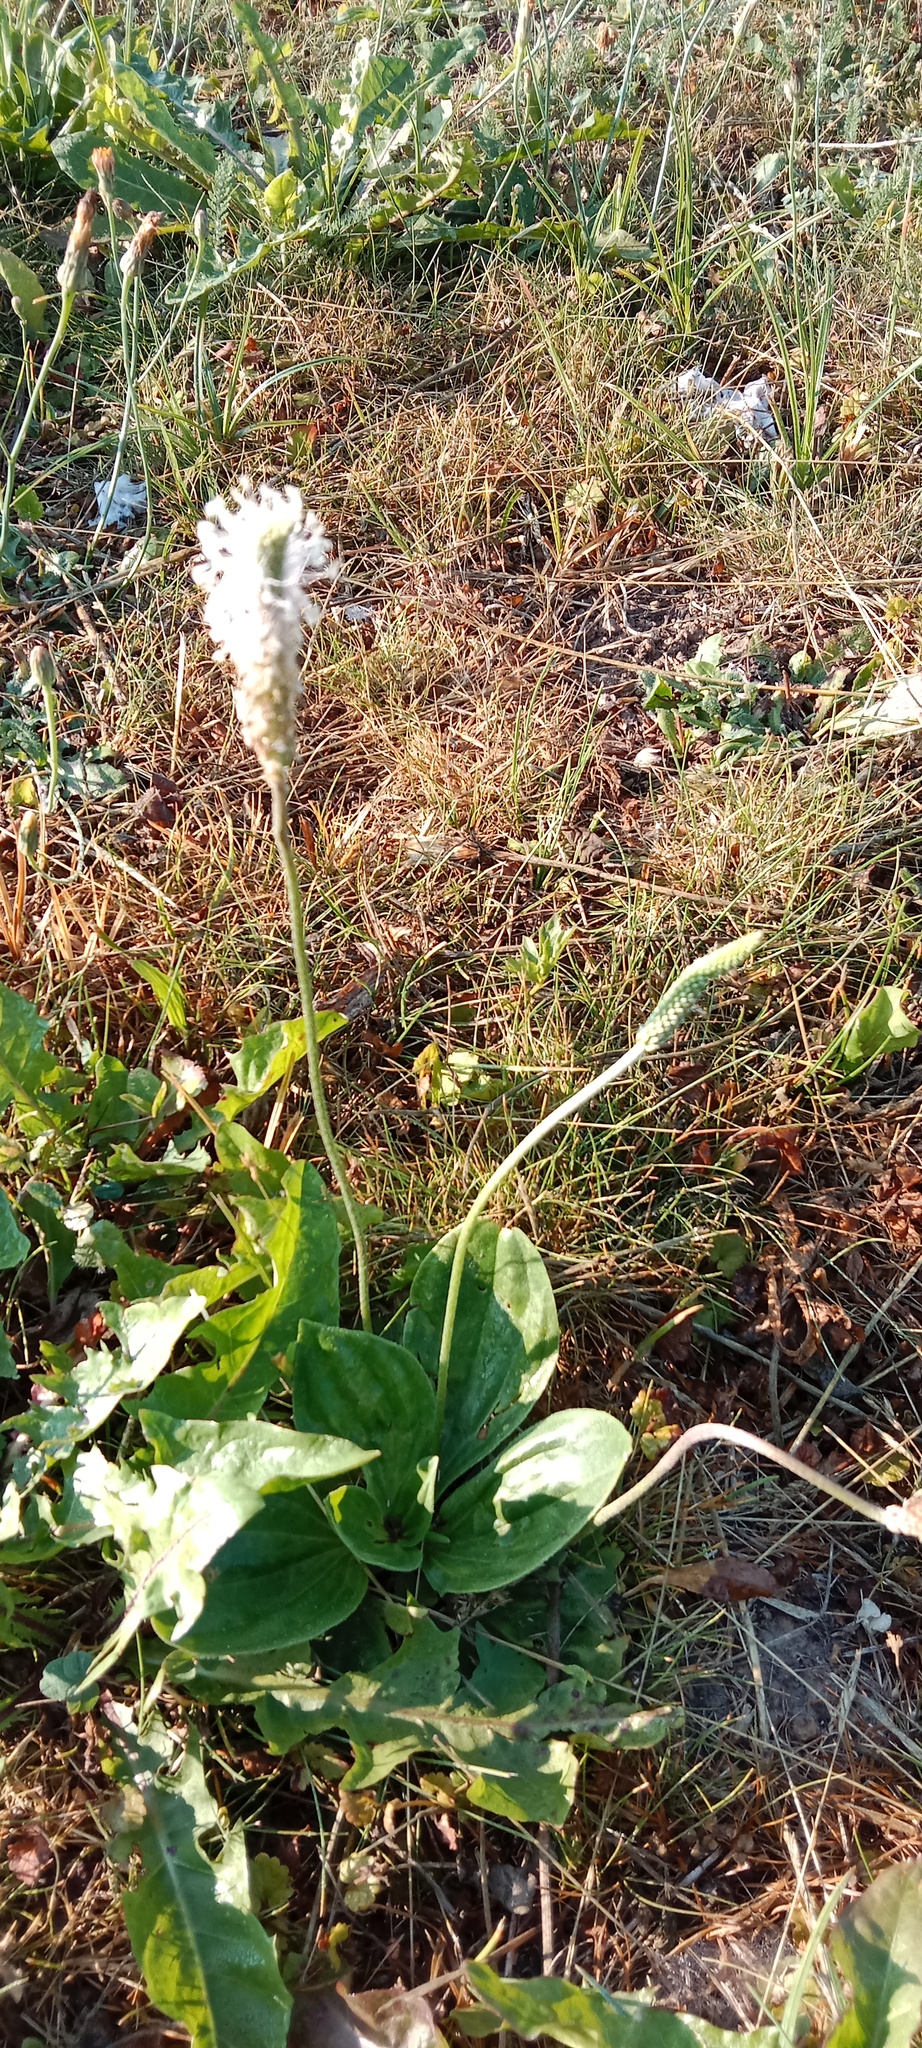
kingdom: Plantae
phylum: Tracheophyta
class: Magnoliopsida
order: Lamiales
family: Plantaginaceae
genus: Plantago
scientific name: Plantago media
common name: Hoary plantain
